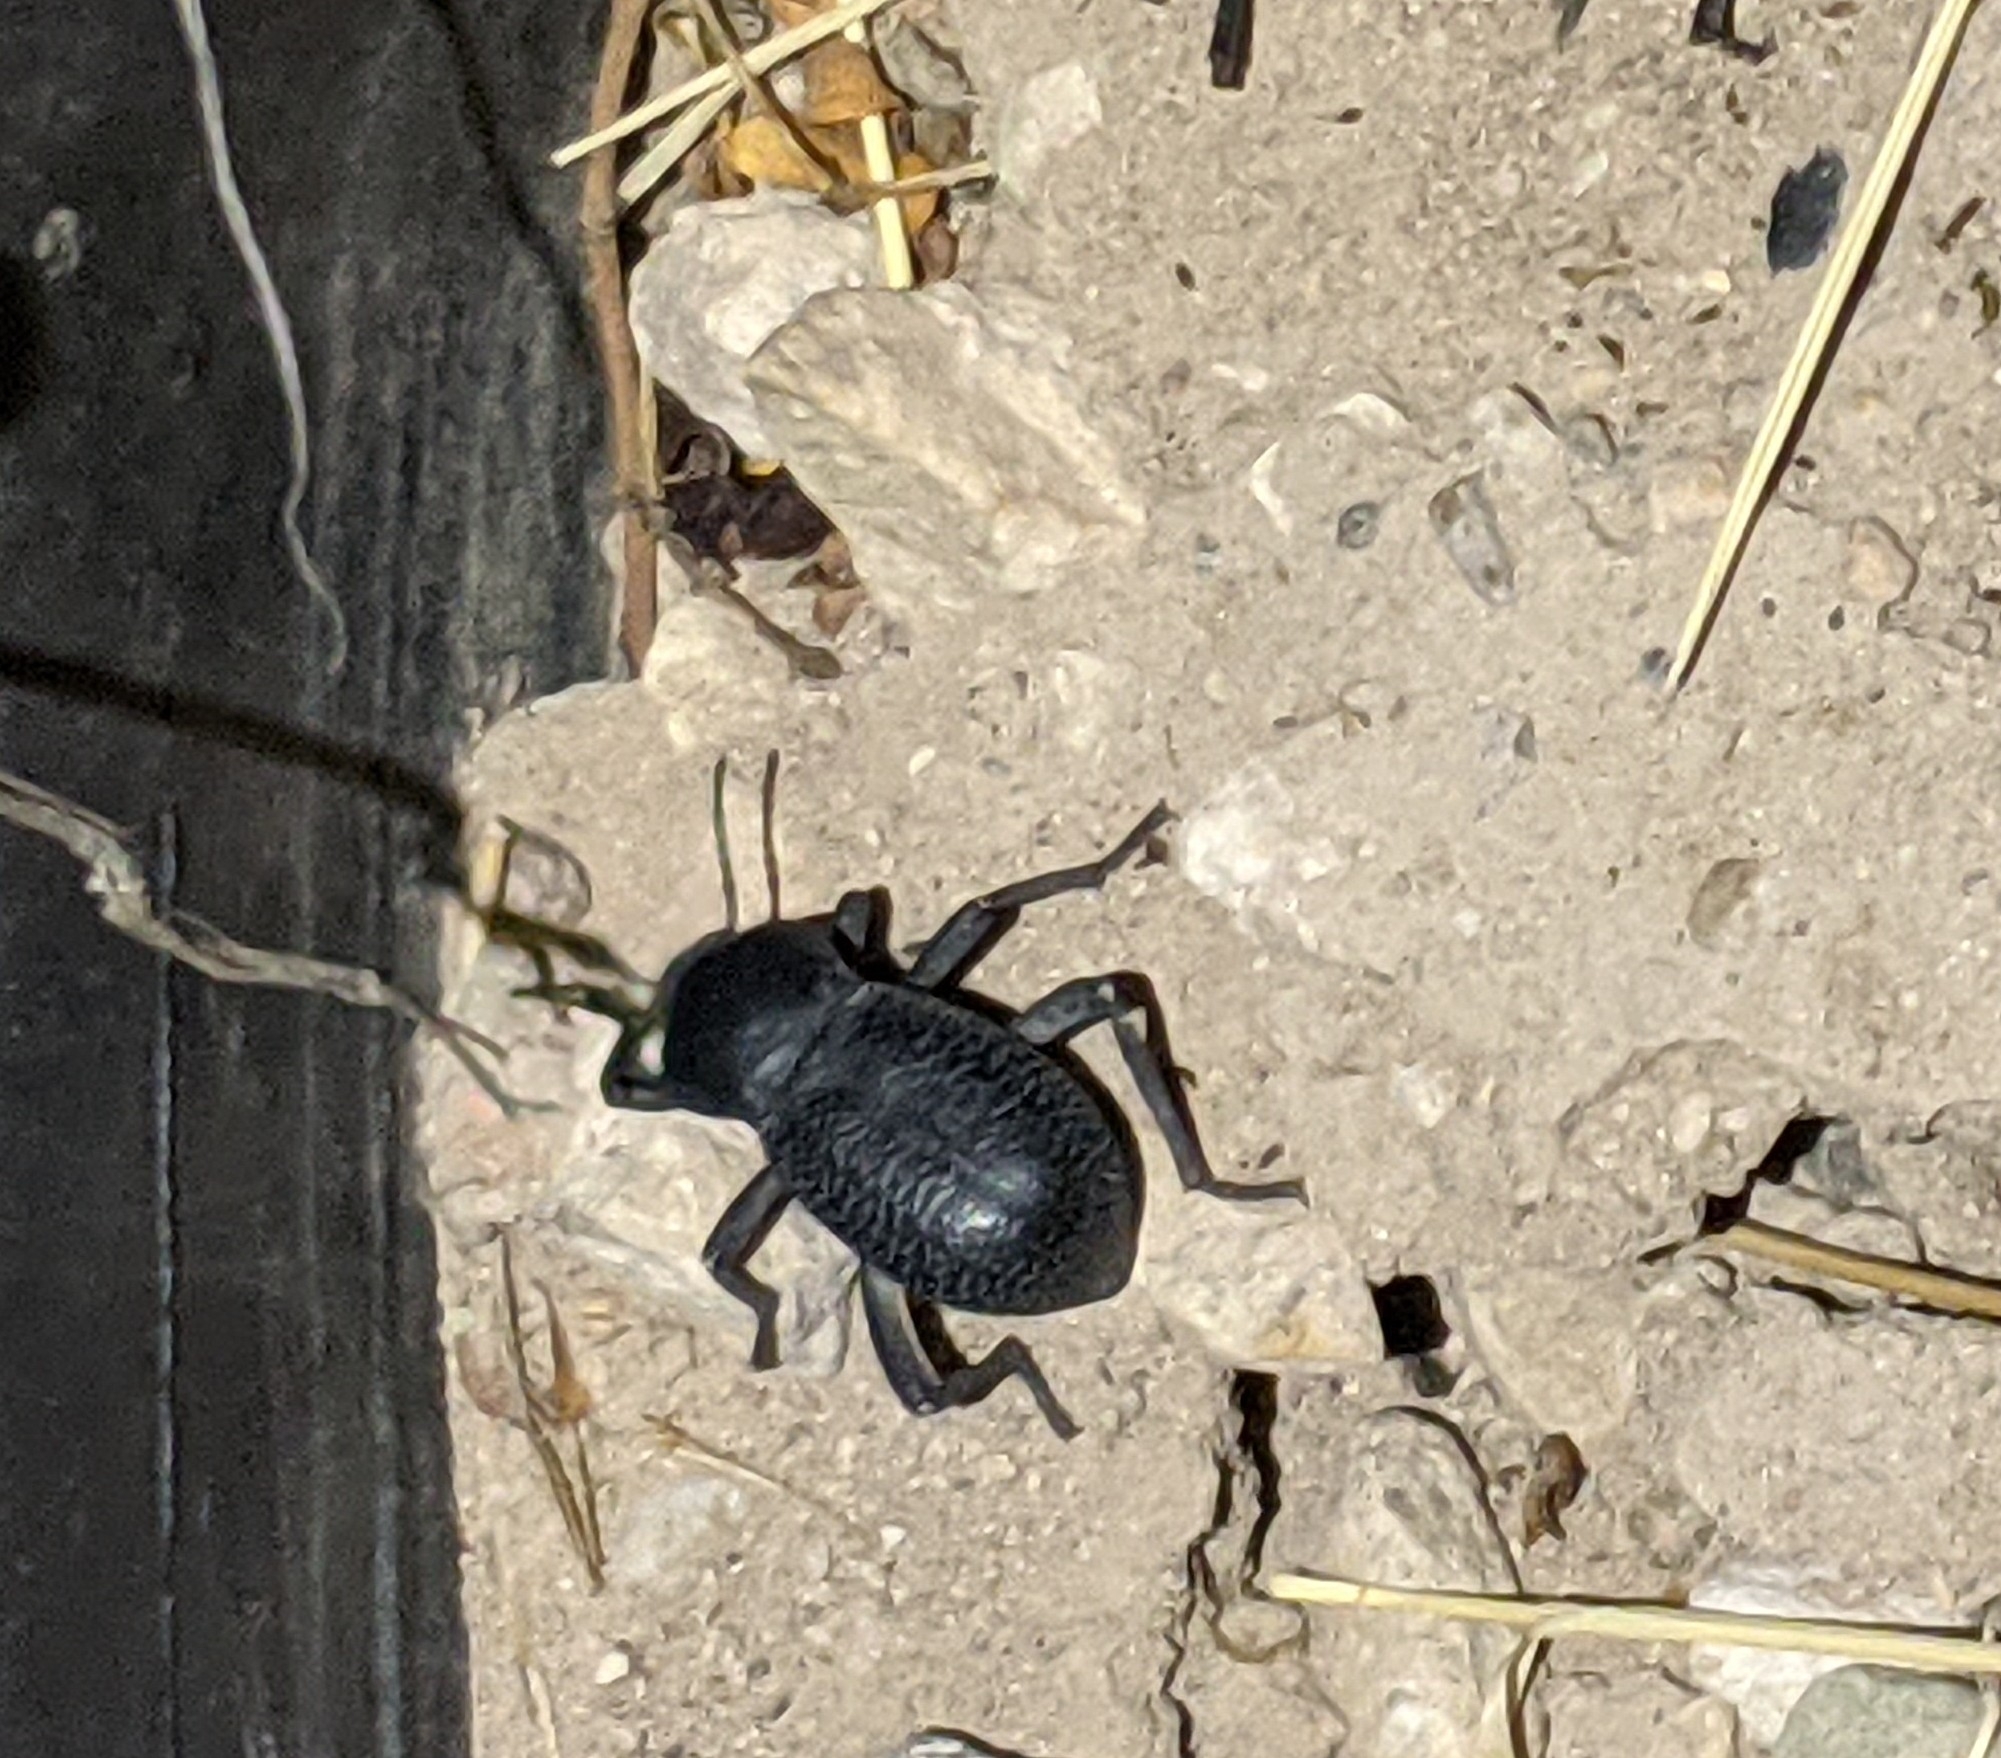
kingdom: Animalia
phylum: Arthropoda
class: Insecta
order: Coleoptera
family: Tenebrionidae
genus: Cryptoglossa
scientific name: Cryptoglossa infausta
